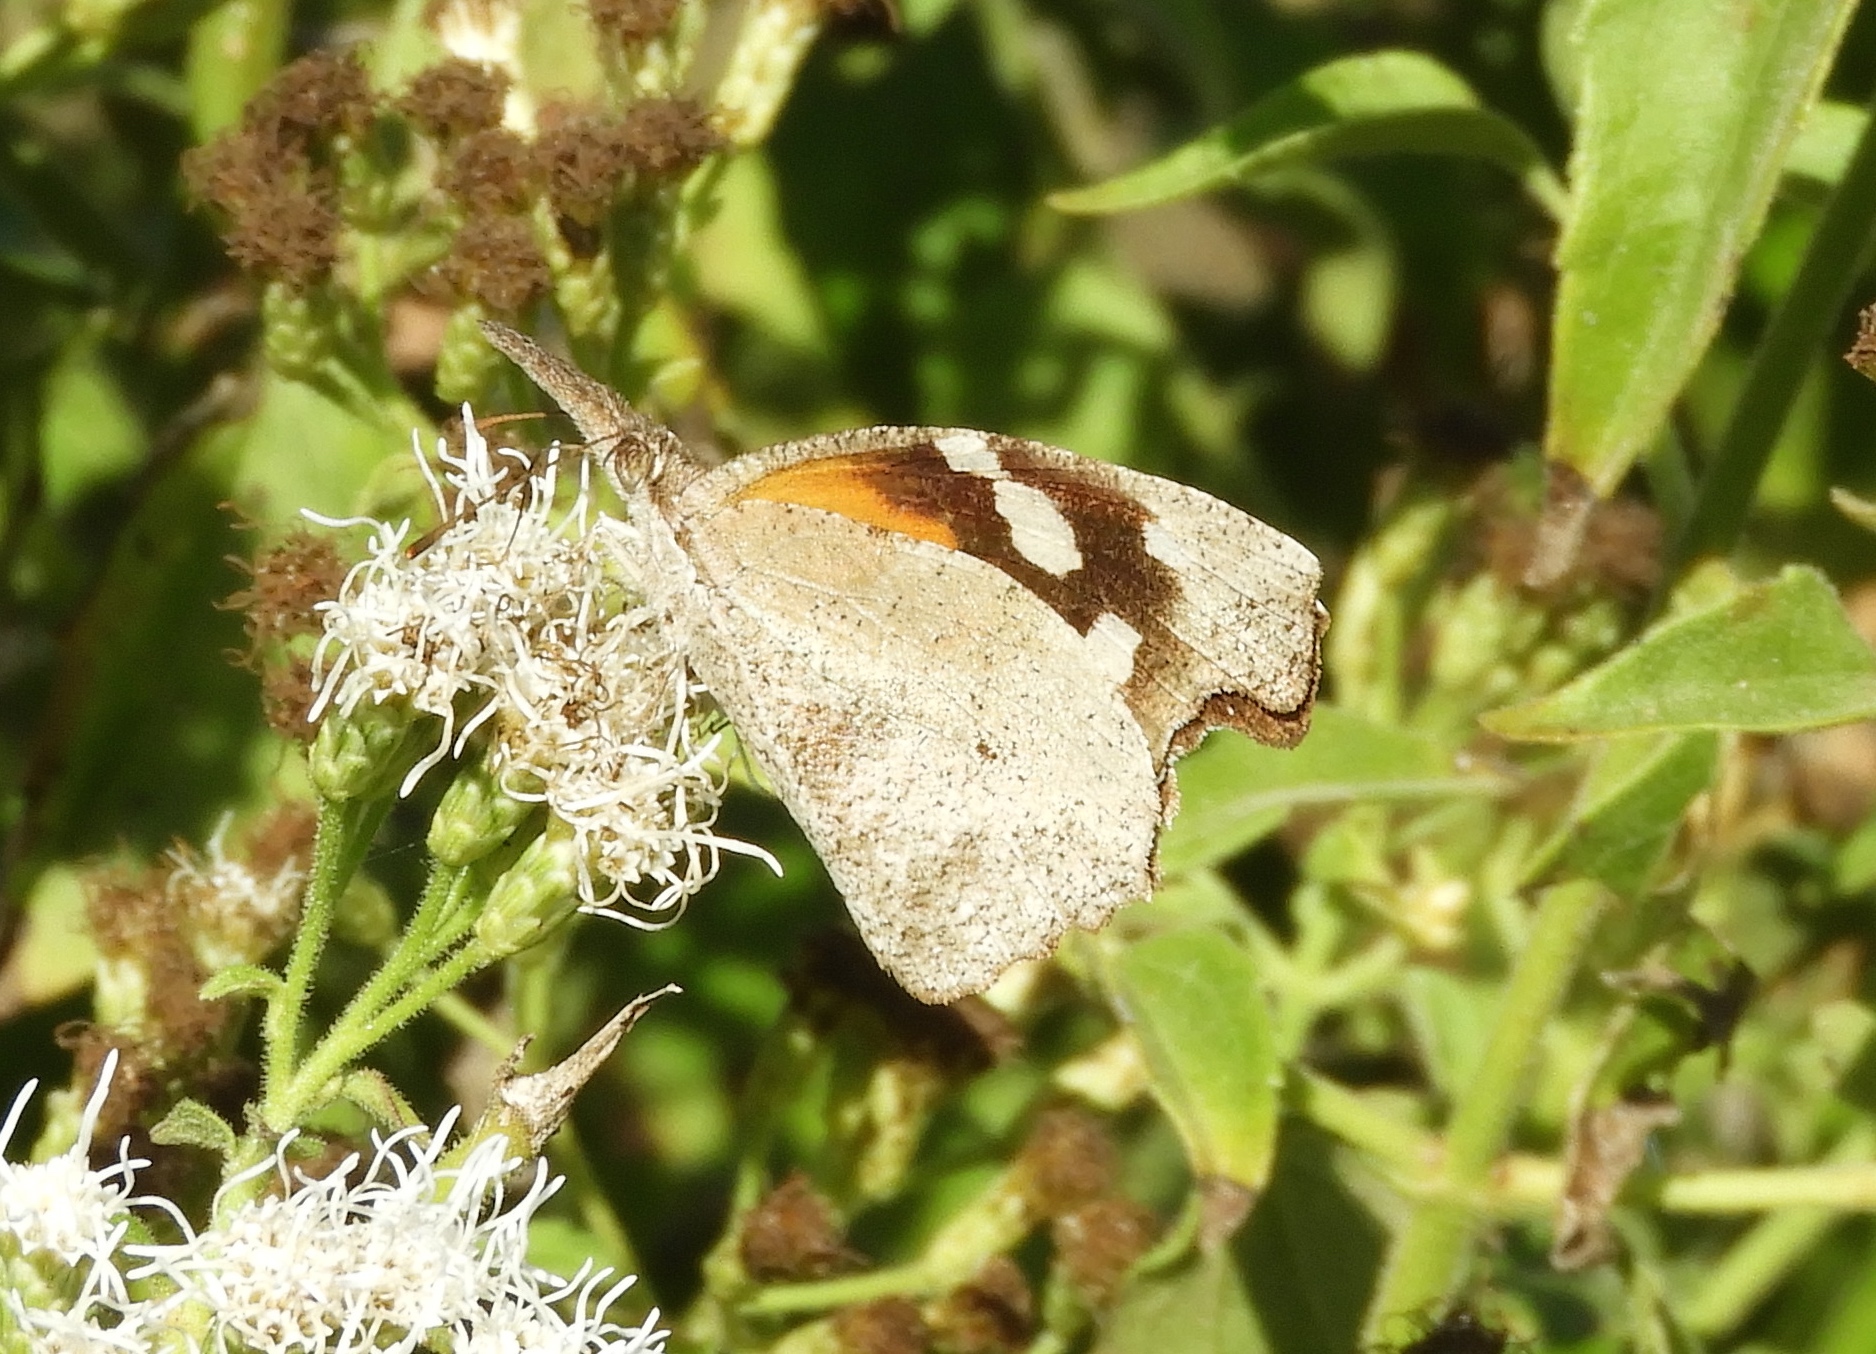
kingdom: Animalia
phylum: Arthropoda
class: Insecta
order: Lepidoptera
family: Nymphalidae
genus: Libytheana
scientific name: Libytheana carinenta
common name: American snout
